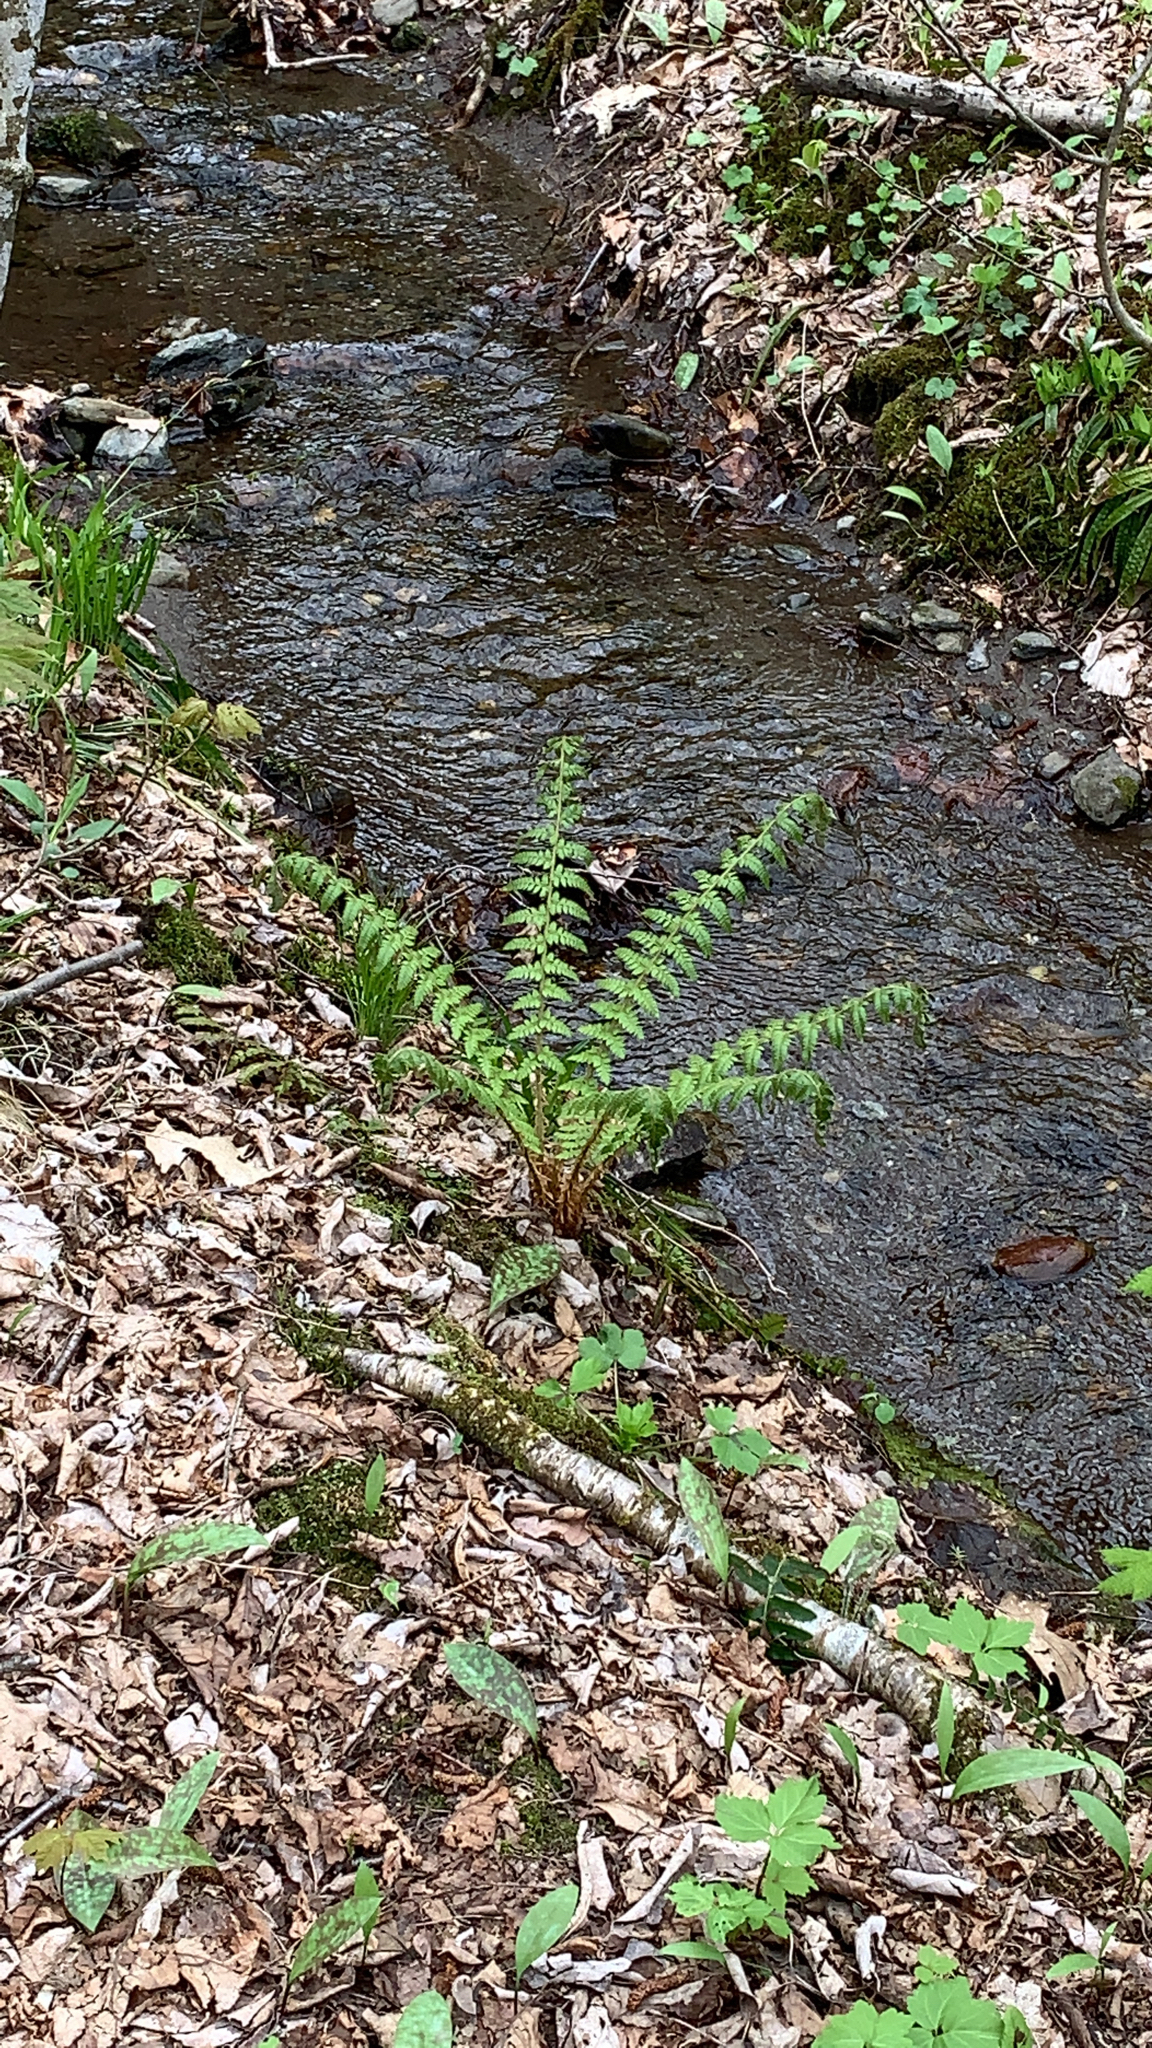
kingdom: Plantae
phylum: Tracheophyta
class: Polypodiopsida
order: Polypodiales
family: Dryopteridaceae
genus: Polystichum
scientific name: Polystichum braunii
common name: Braun's holly fern
